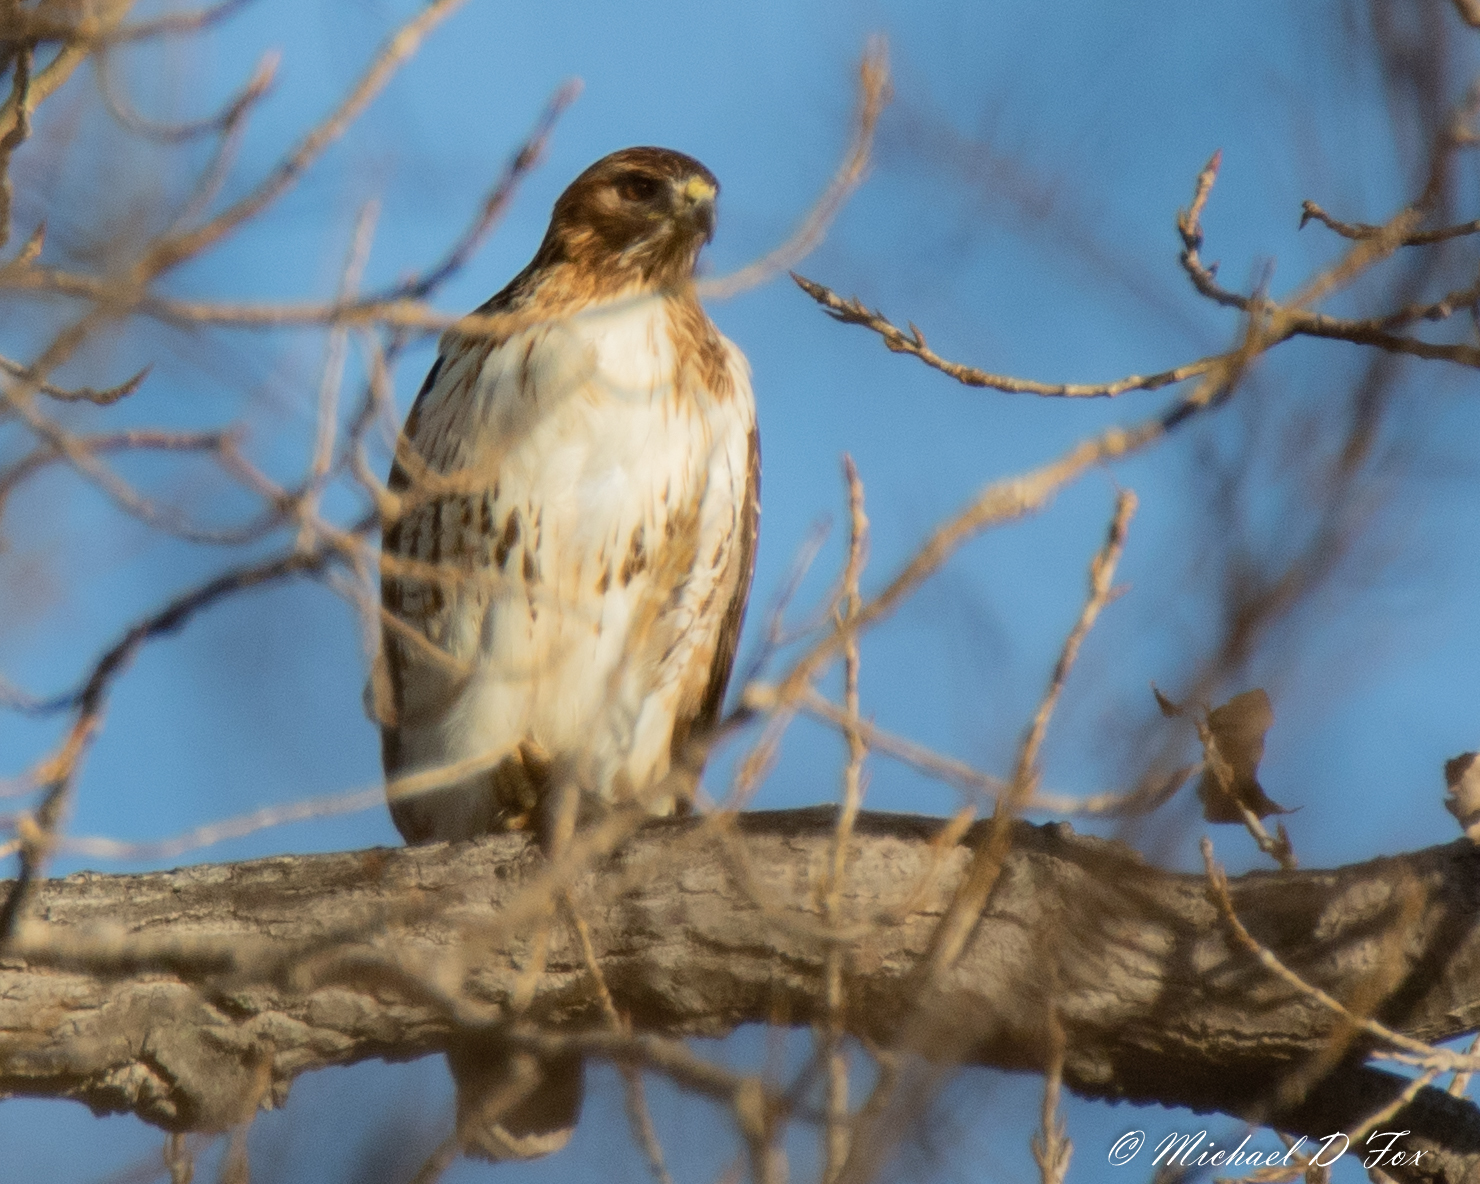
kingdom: Animalia
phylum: Chordata
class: Aves
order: Accipitriformes
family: Accipitridae
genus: Buteo
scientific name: Buteo jamaicensis
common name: Red-tailed hawk
